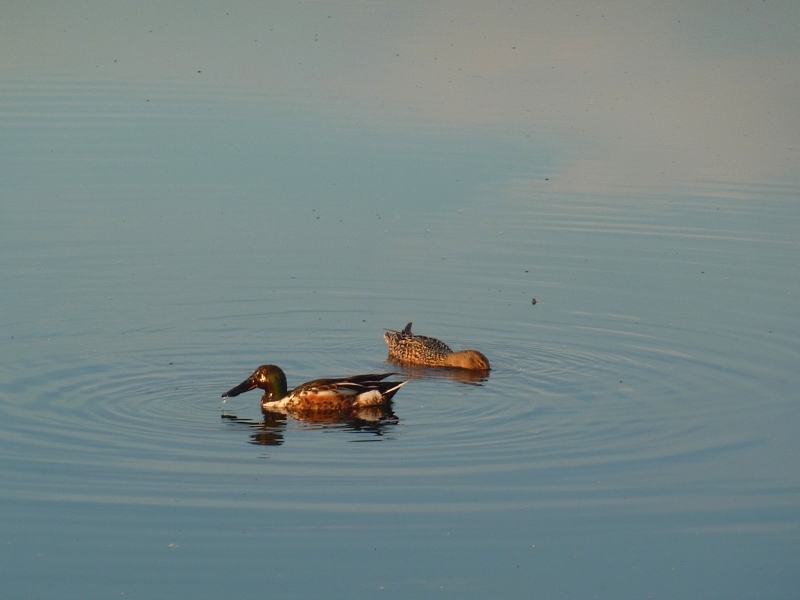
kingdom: Animalia
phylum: Chordata
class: Aves
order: Anseriformes
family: Anatidae
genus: Spatula
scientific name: Spatula clypeata
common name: Northern shoveler
